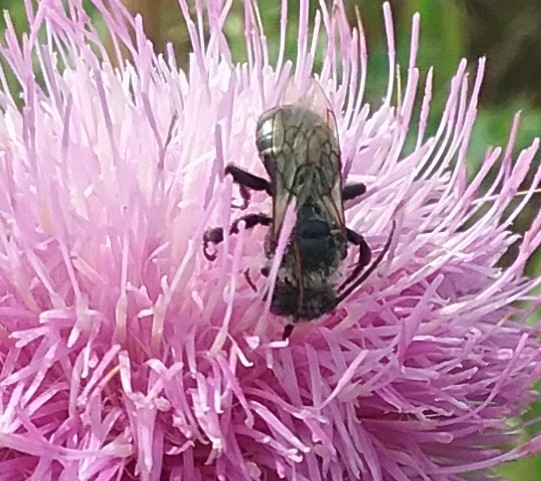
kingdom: Animalia
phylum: Arthropoda
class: Insecta
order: Hymenoptera
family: Apidae
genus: Melissodes
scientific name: Melissodes desponsus
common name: Thistle long-horned bee
